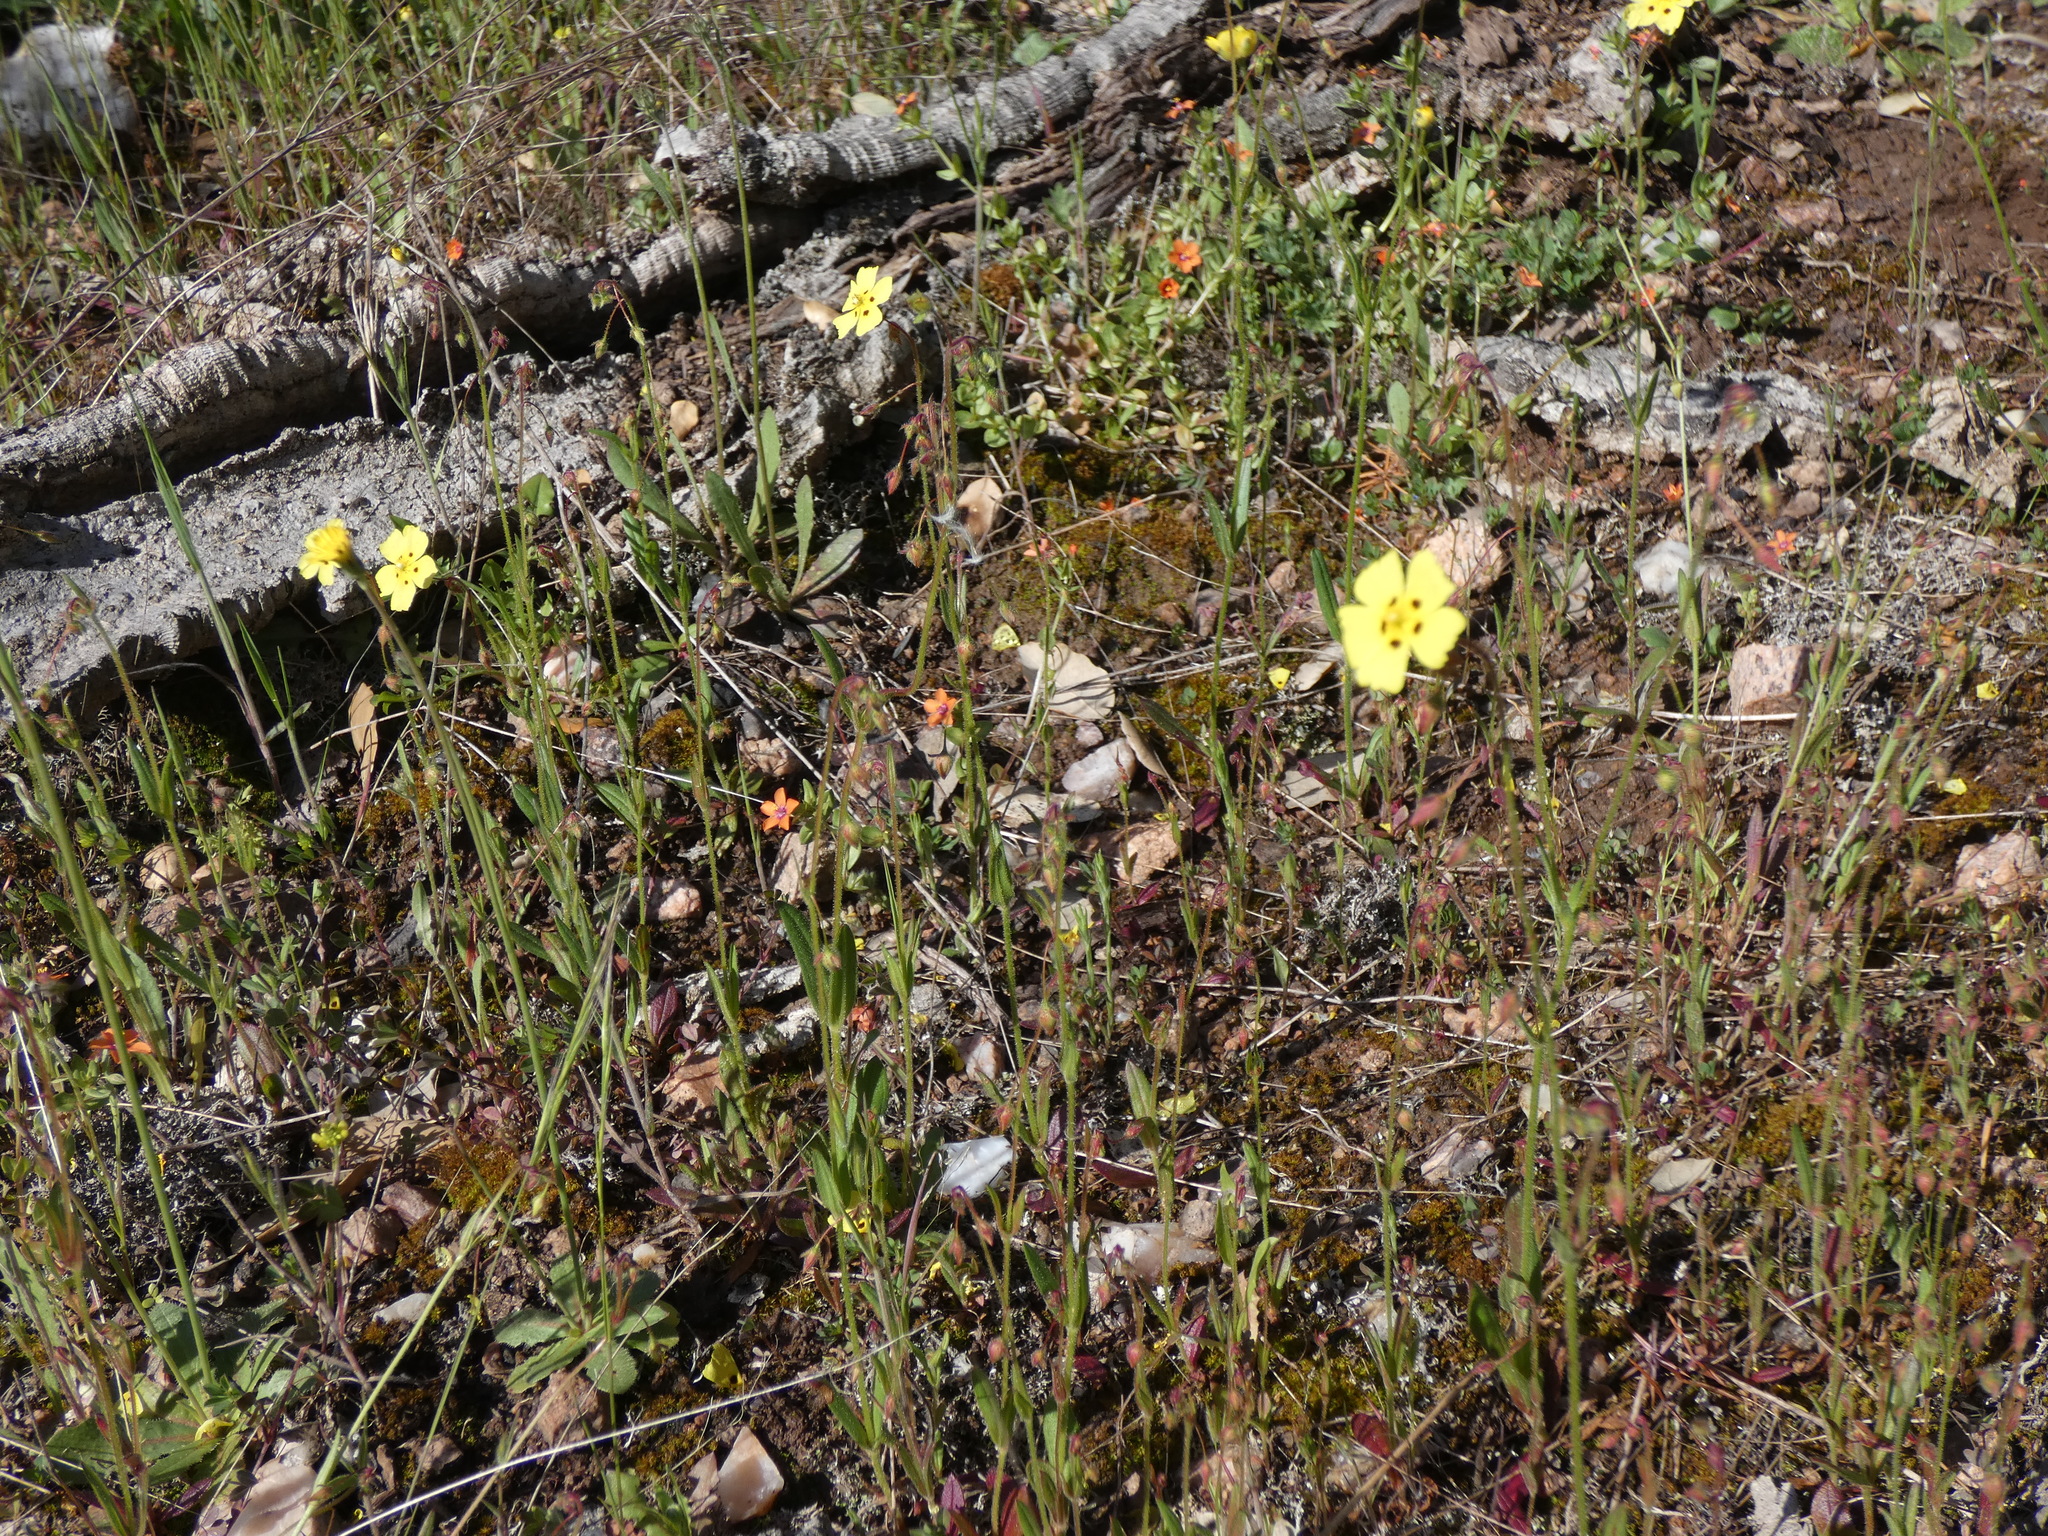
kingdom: Plantae
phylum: Tracheophyta
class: Magnoliopsida
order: Malvales
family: Cistaceae
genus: Tuberaria
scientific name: Tuberaria guttata
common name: Spotted rock-rose
